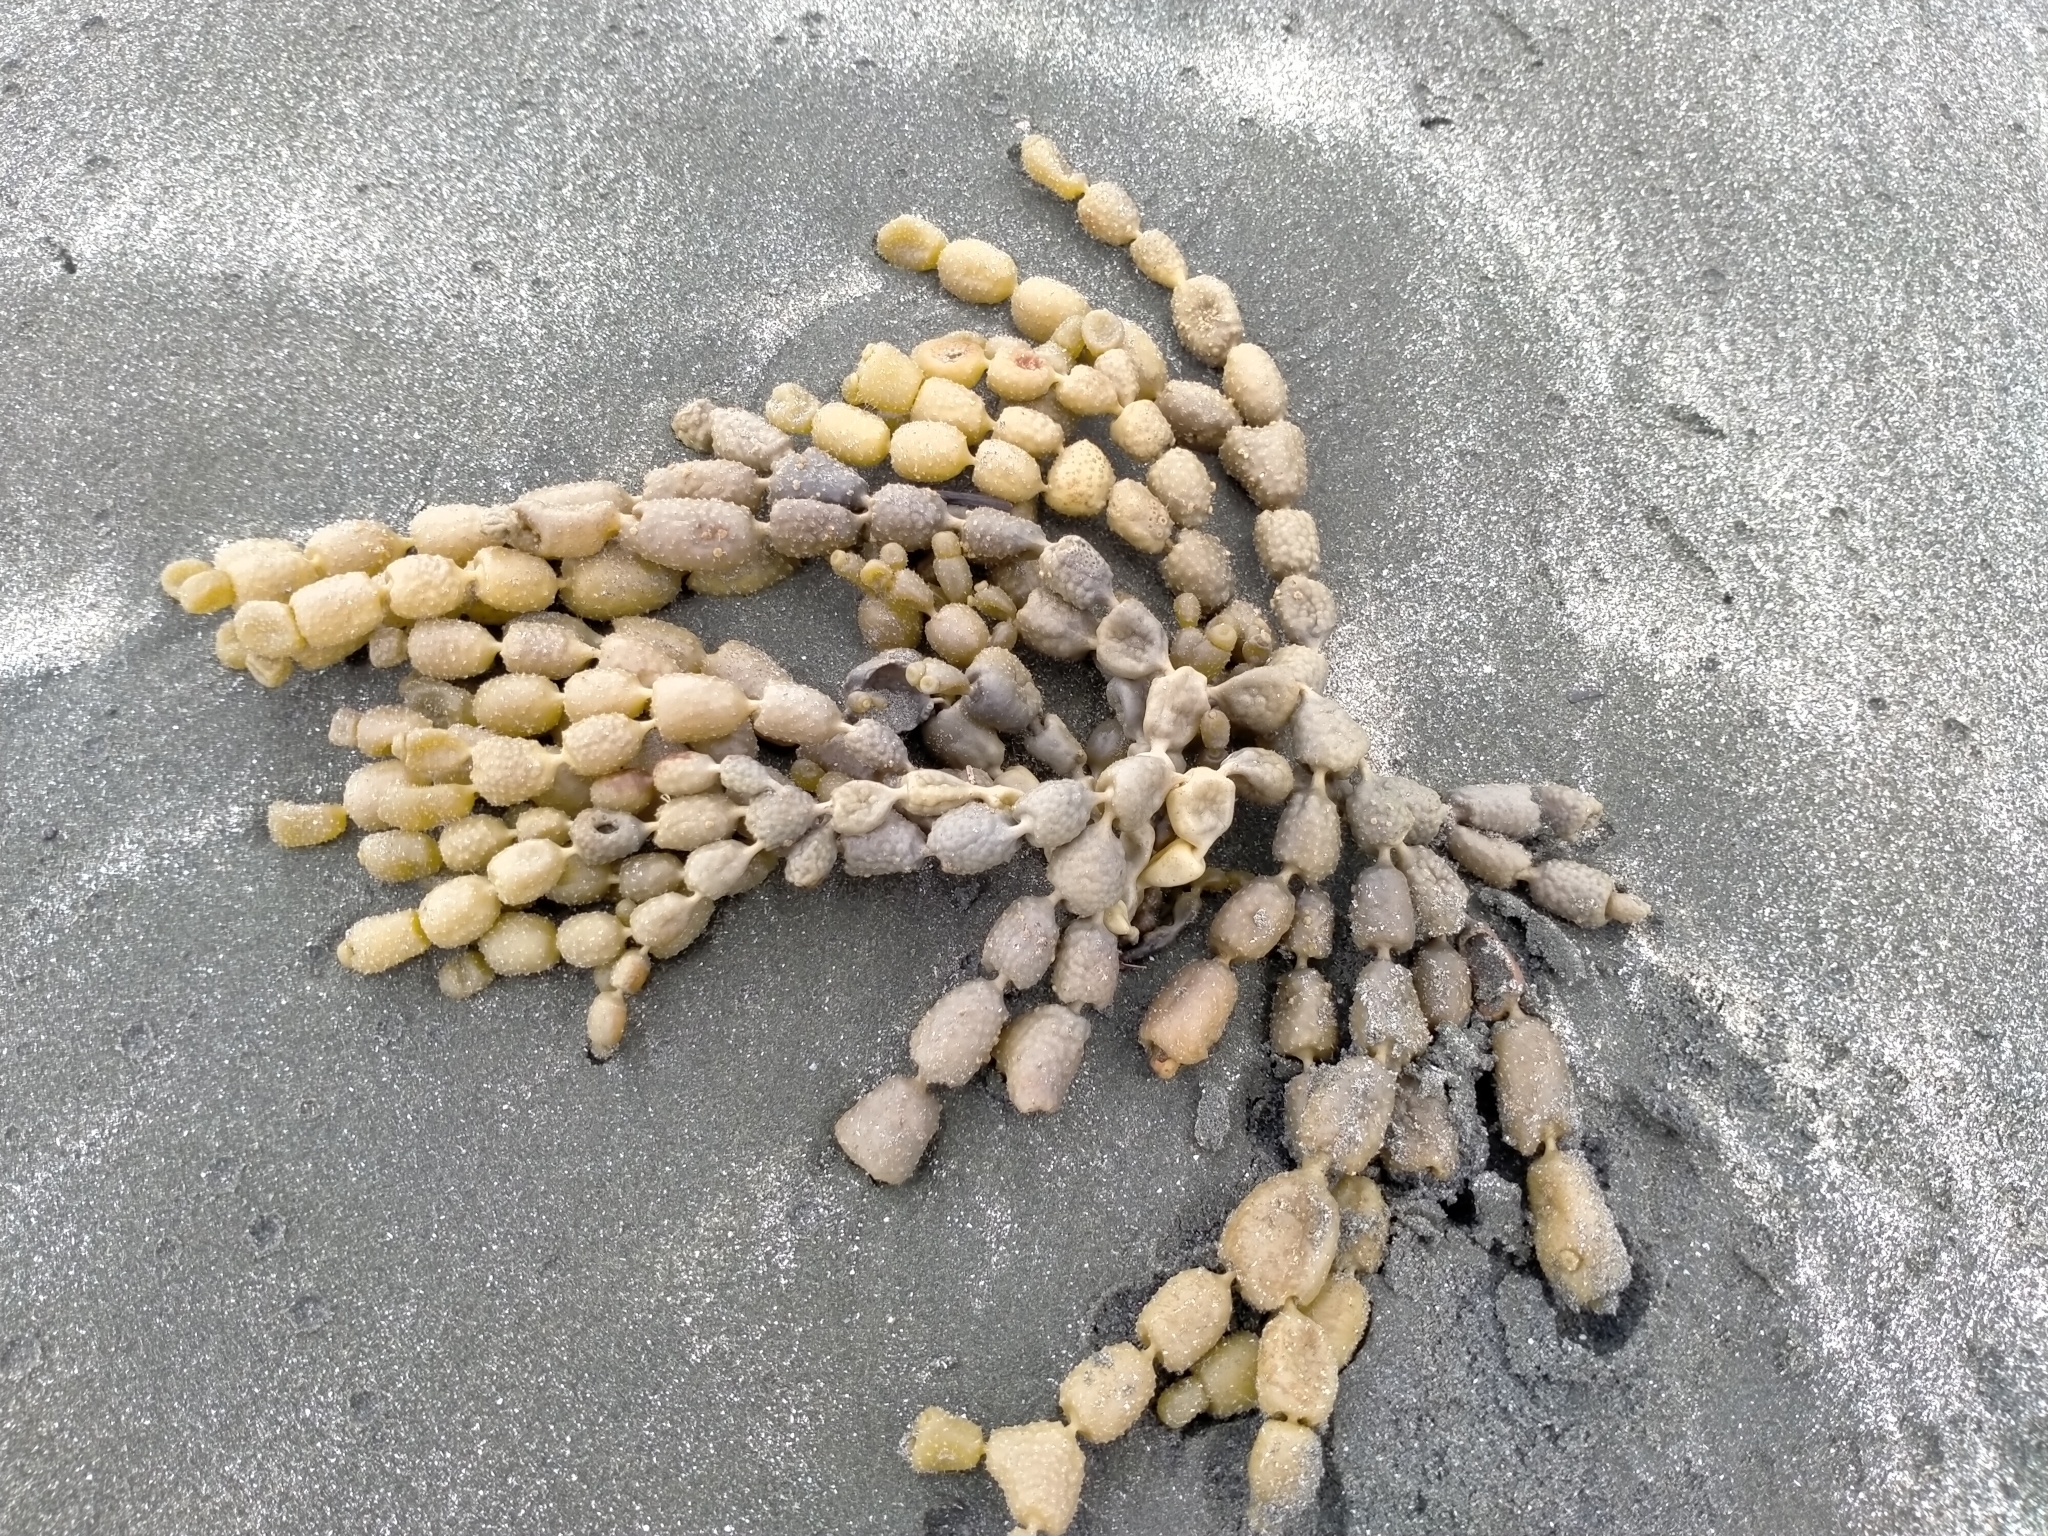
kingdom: Chromista
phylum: Ochrophyta
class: Phaeophyceae
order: Fucales
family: Hormosiraceae
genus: Hormosira
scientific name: Hormosira banksii
